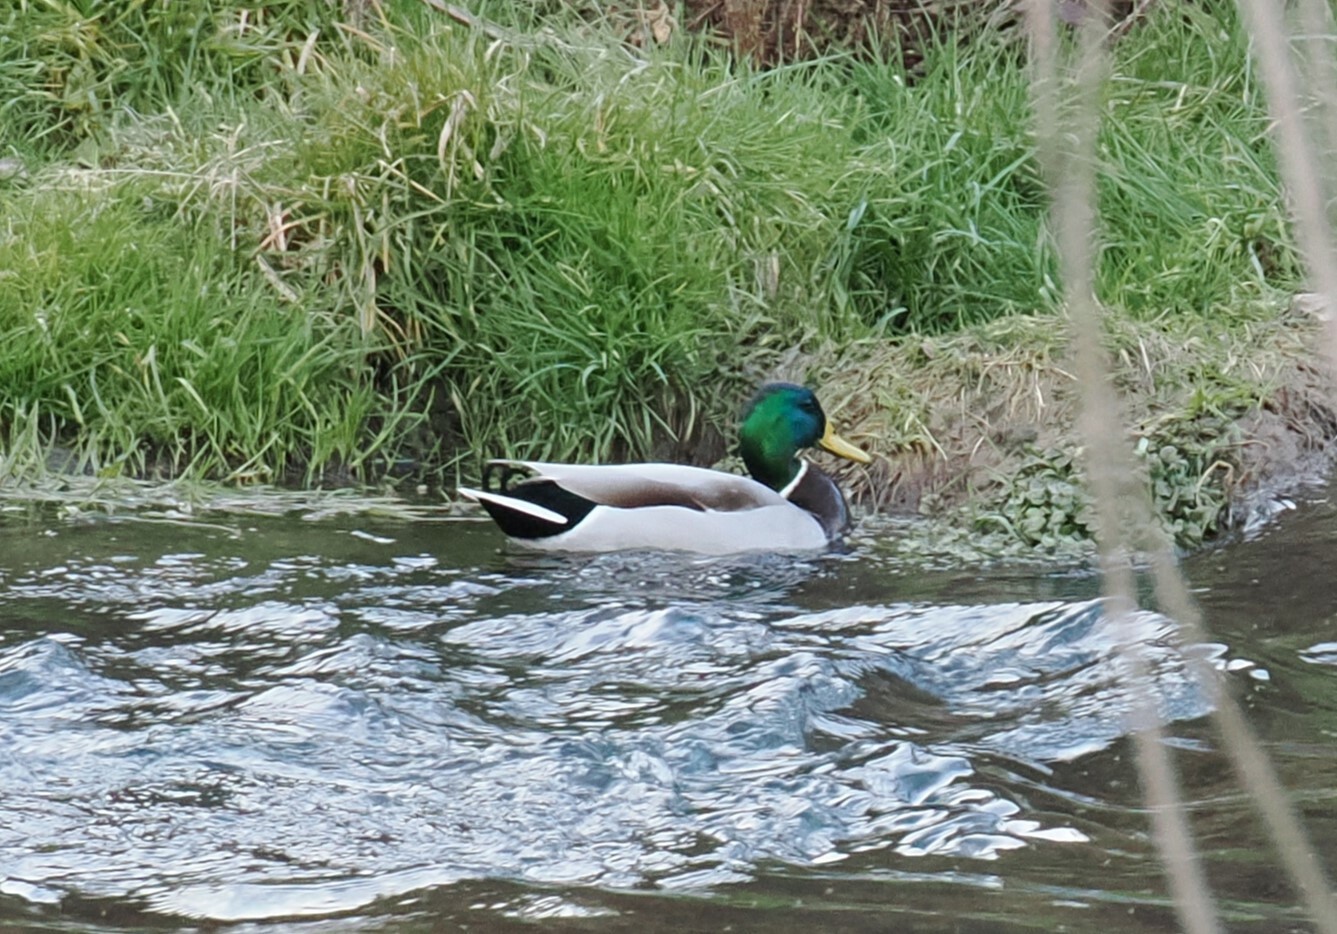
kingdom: Animalia
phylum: Chordata
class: Aves
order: Anseriformes
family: Anatidae
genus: Anas
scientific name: Anas platyrhynchos
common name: Mallard
